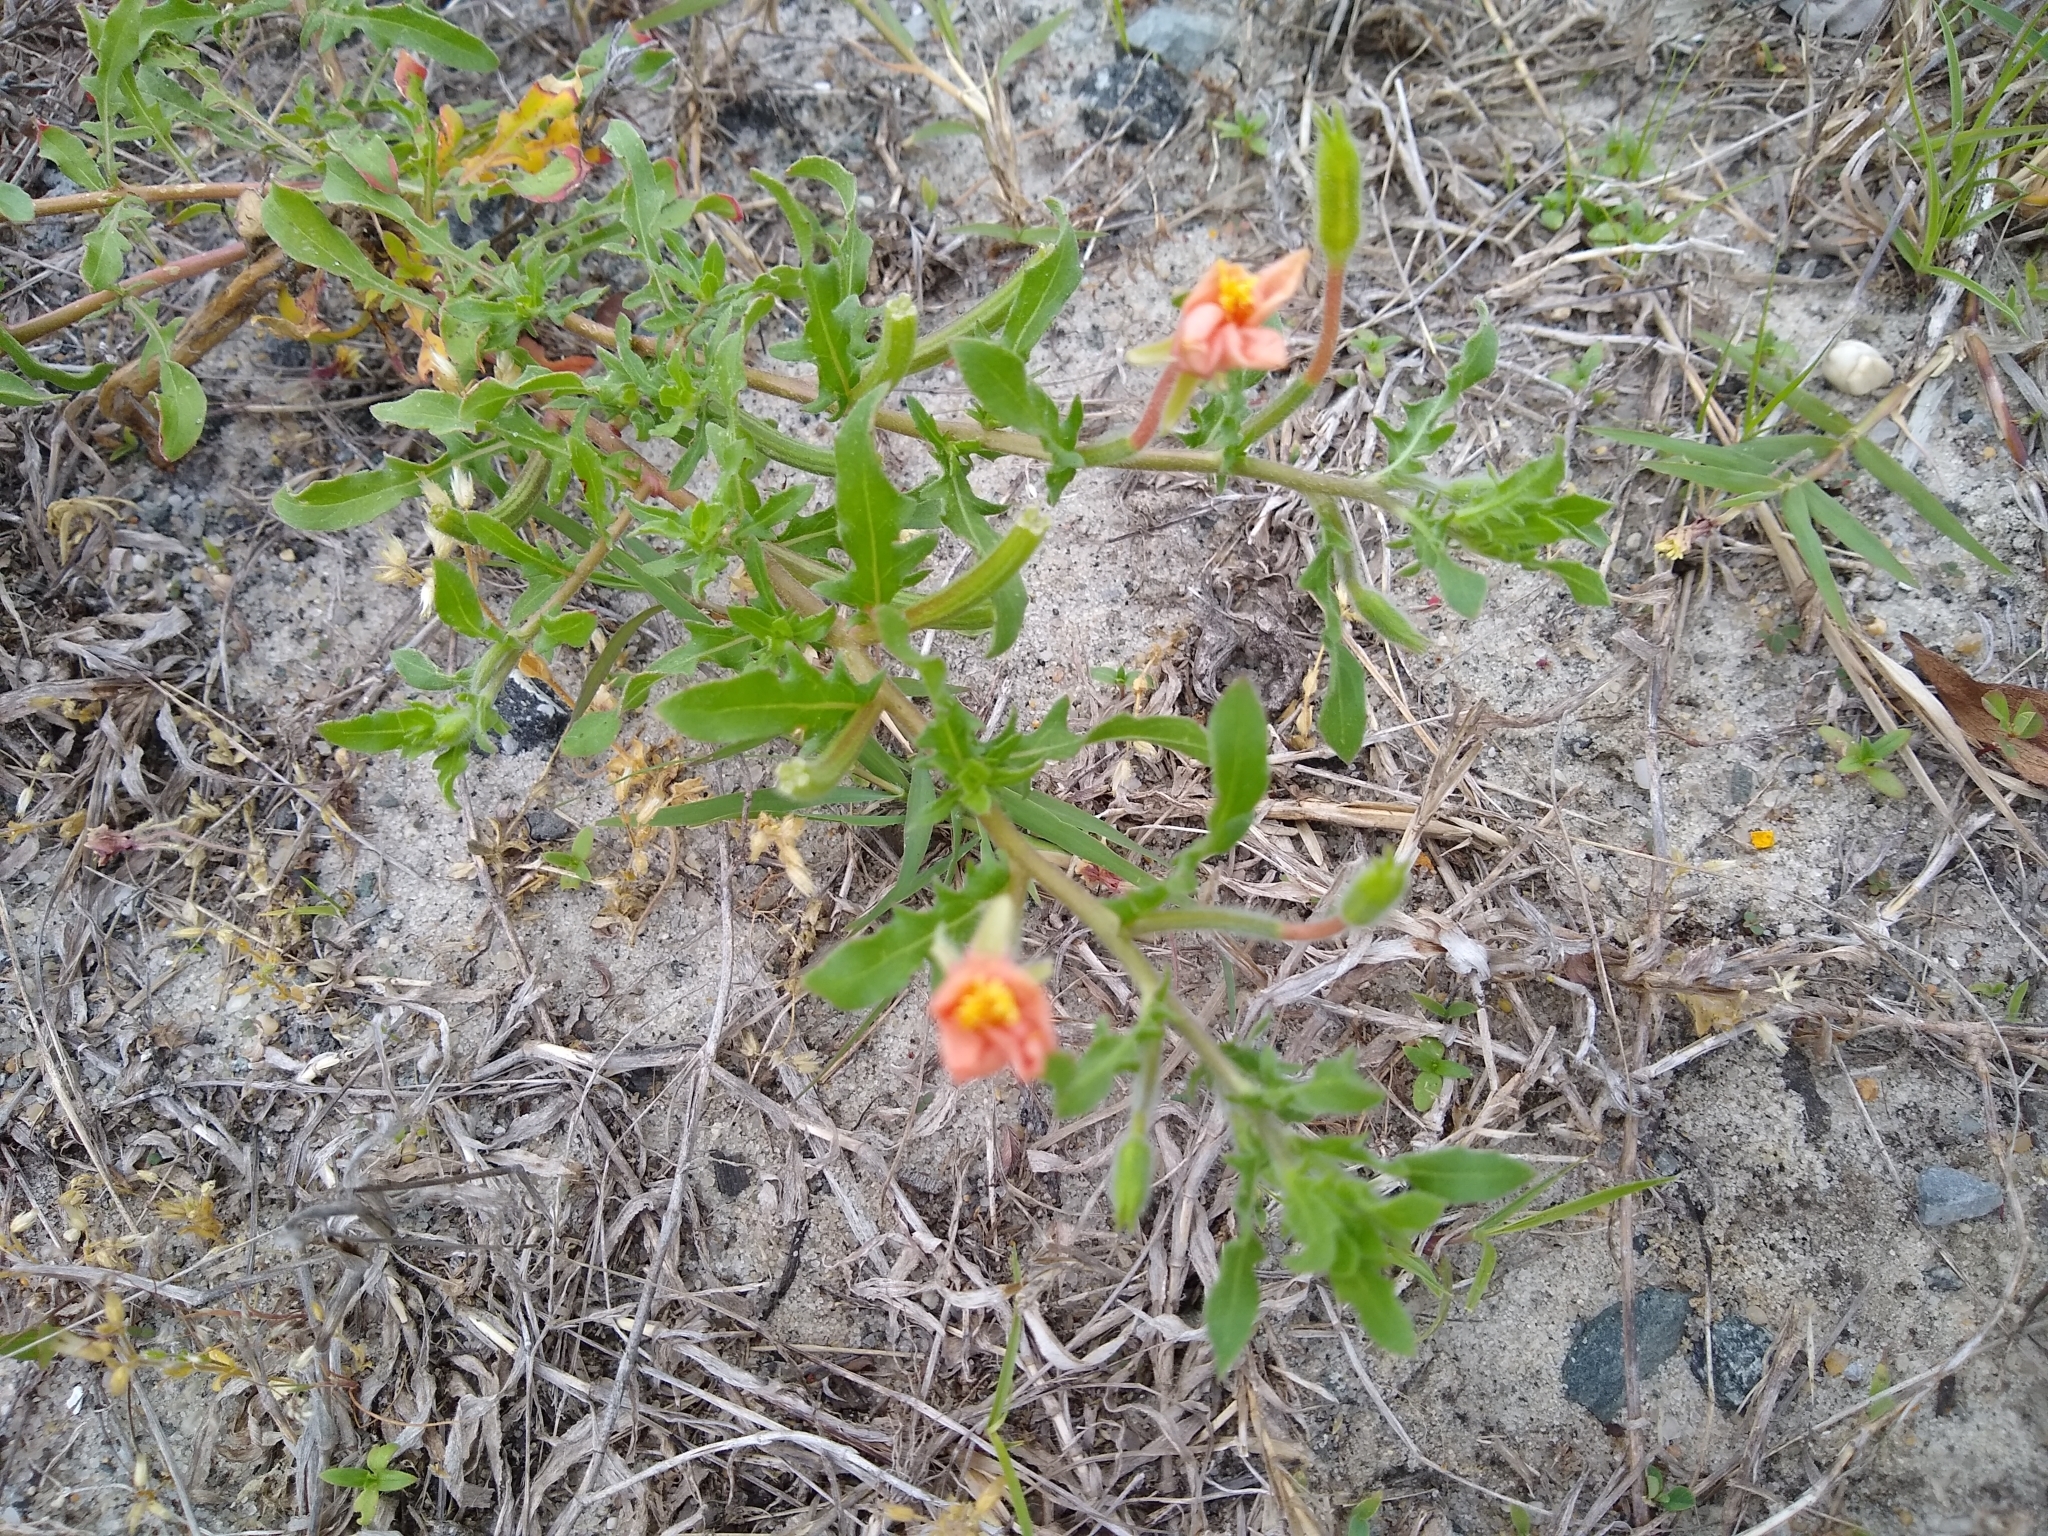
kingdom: Plantae
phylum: Tracheophyta
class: Magnoliopsida
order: Myrtales
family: Onagraceae
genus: Oenothera
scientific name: Oenothera laciniata
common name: Cut-leaved evening-primrose
